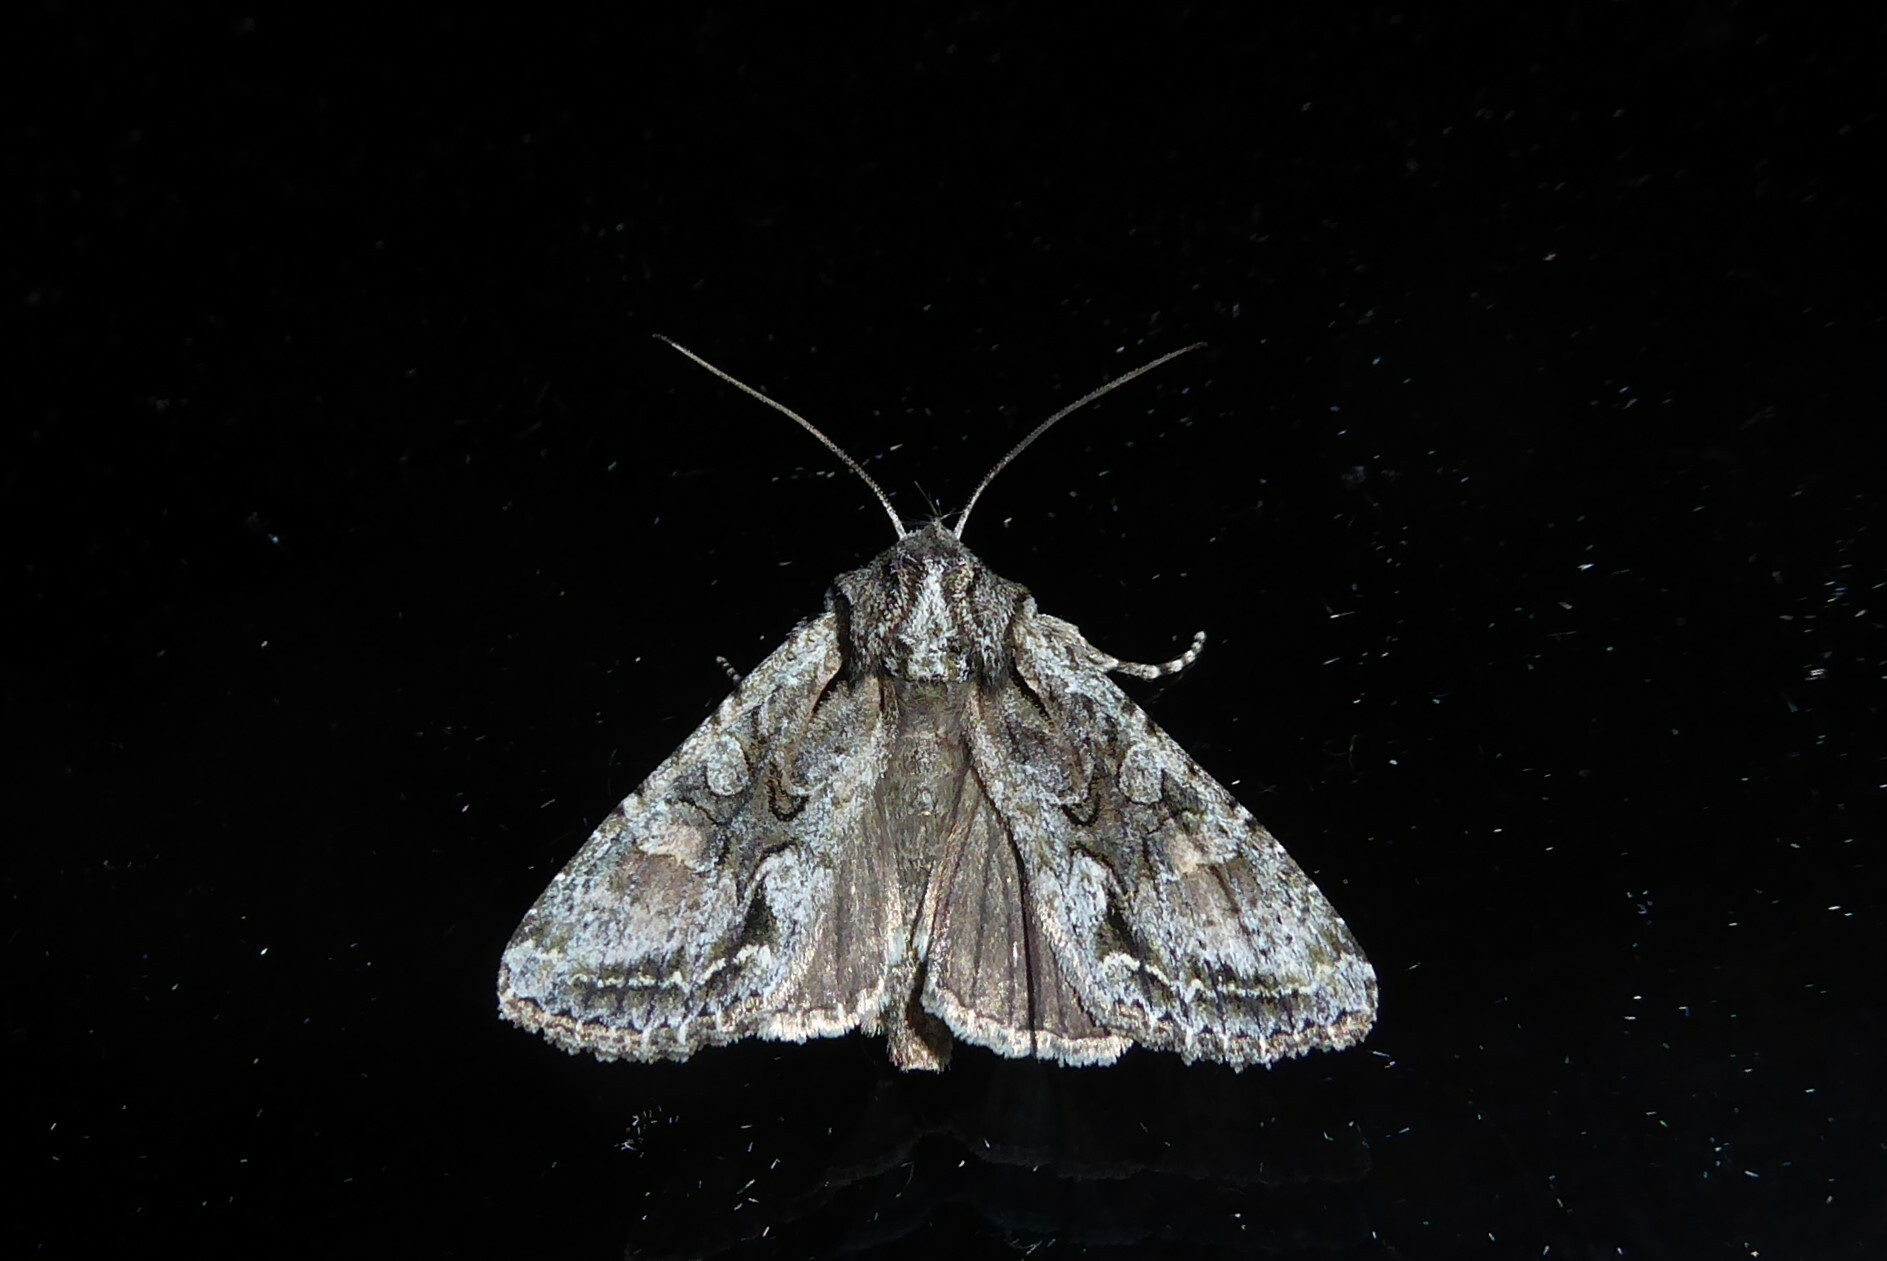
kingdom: Animalia
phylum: Arthropoda
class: Insecta
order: Lepidoptera
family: Noctuidae
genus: Ichneutica
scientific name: Ichneutica mutans
